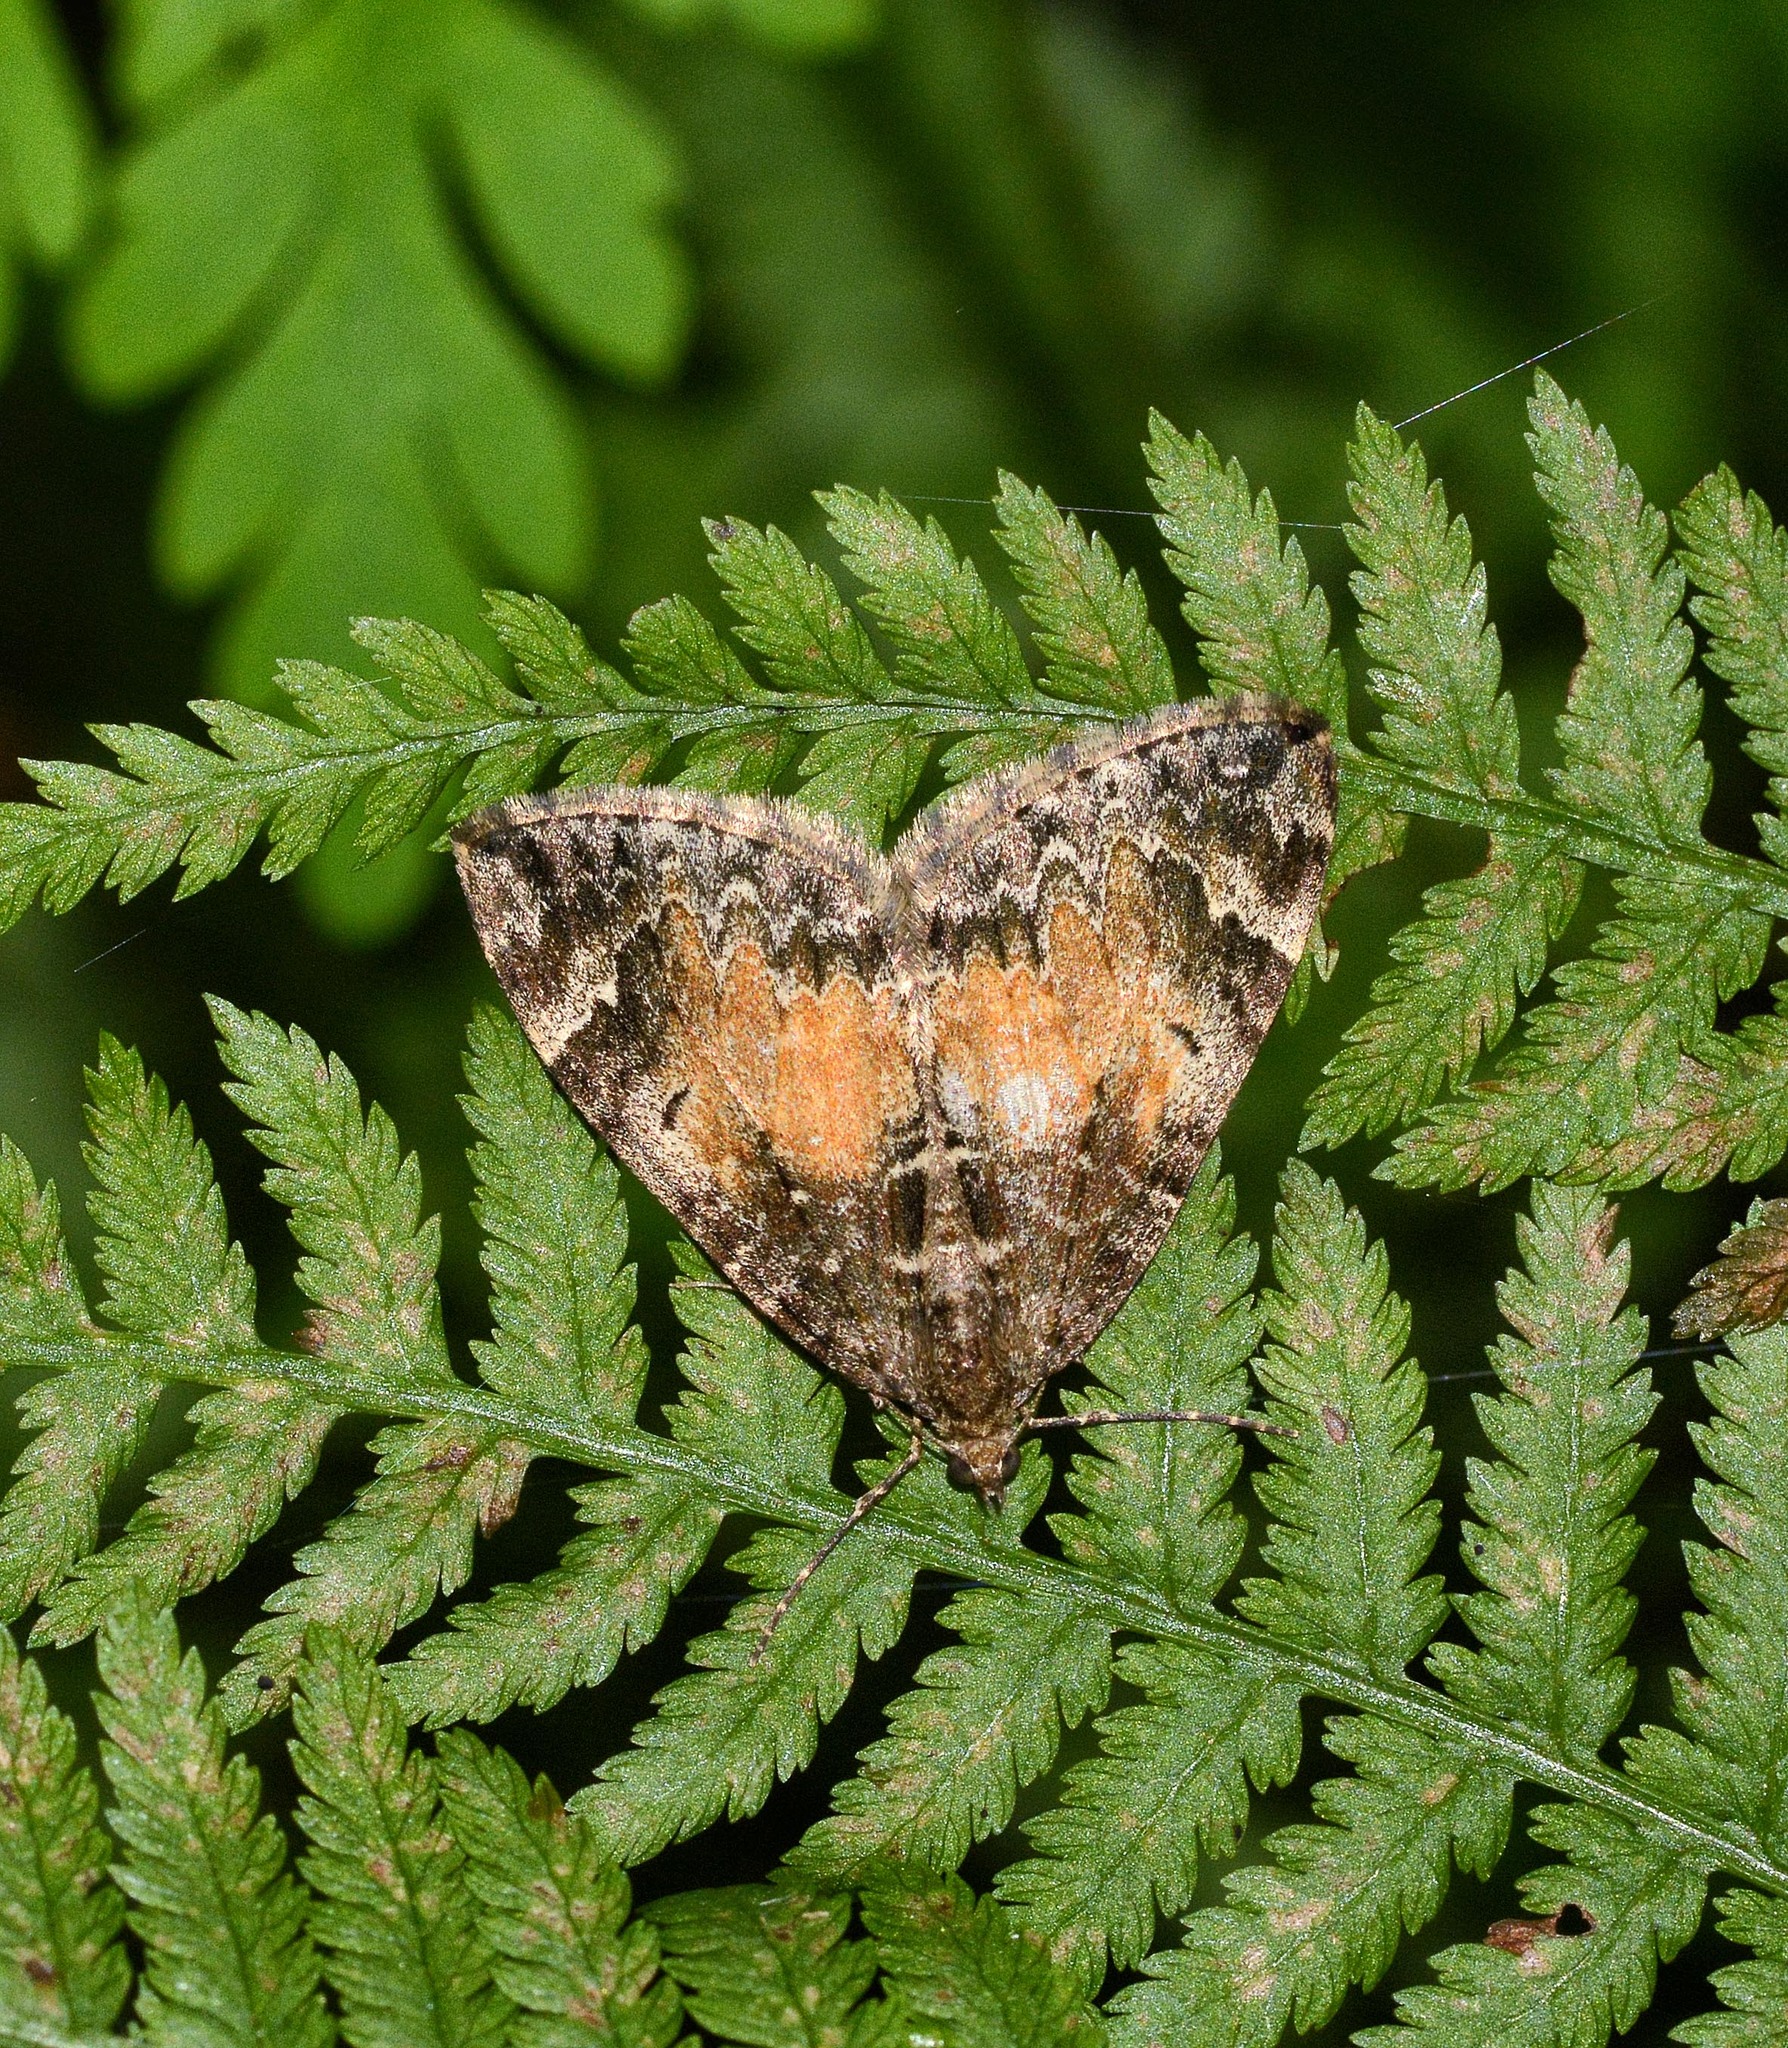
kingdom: Animalia
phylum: Arthropoda
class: Insecta
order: Lepidoptera
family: Geometridae
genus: Dysstroma
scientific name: Dysstroma truncata
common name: Common marbled carpet
